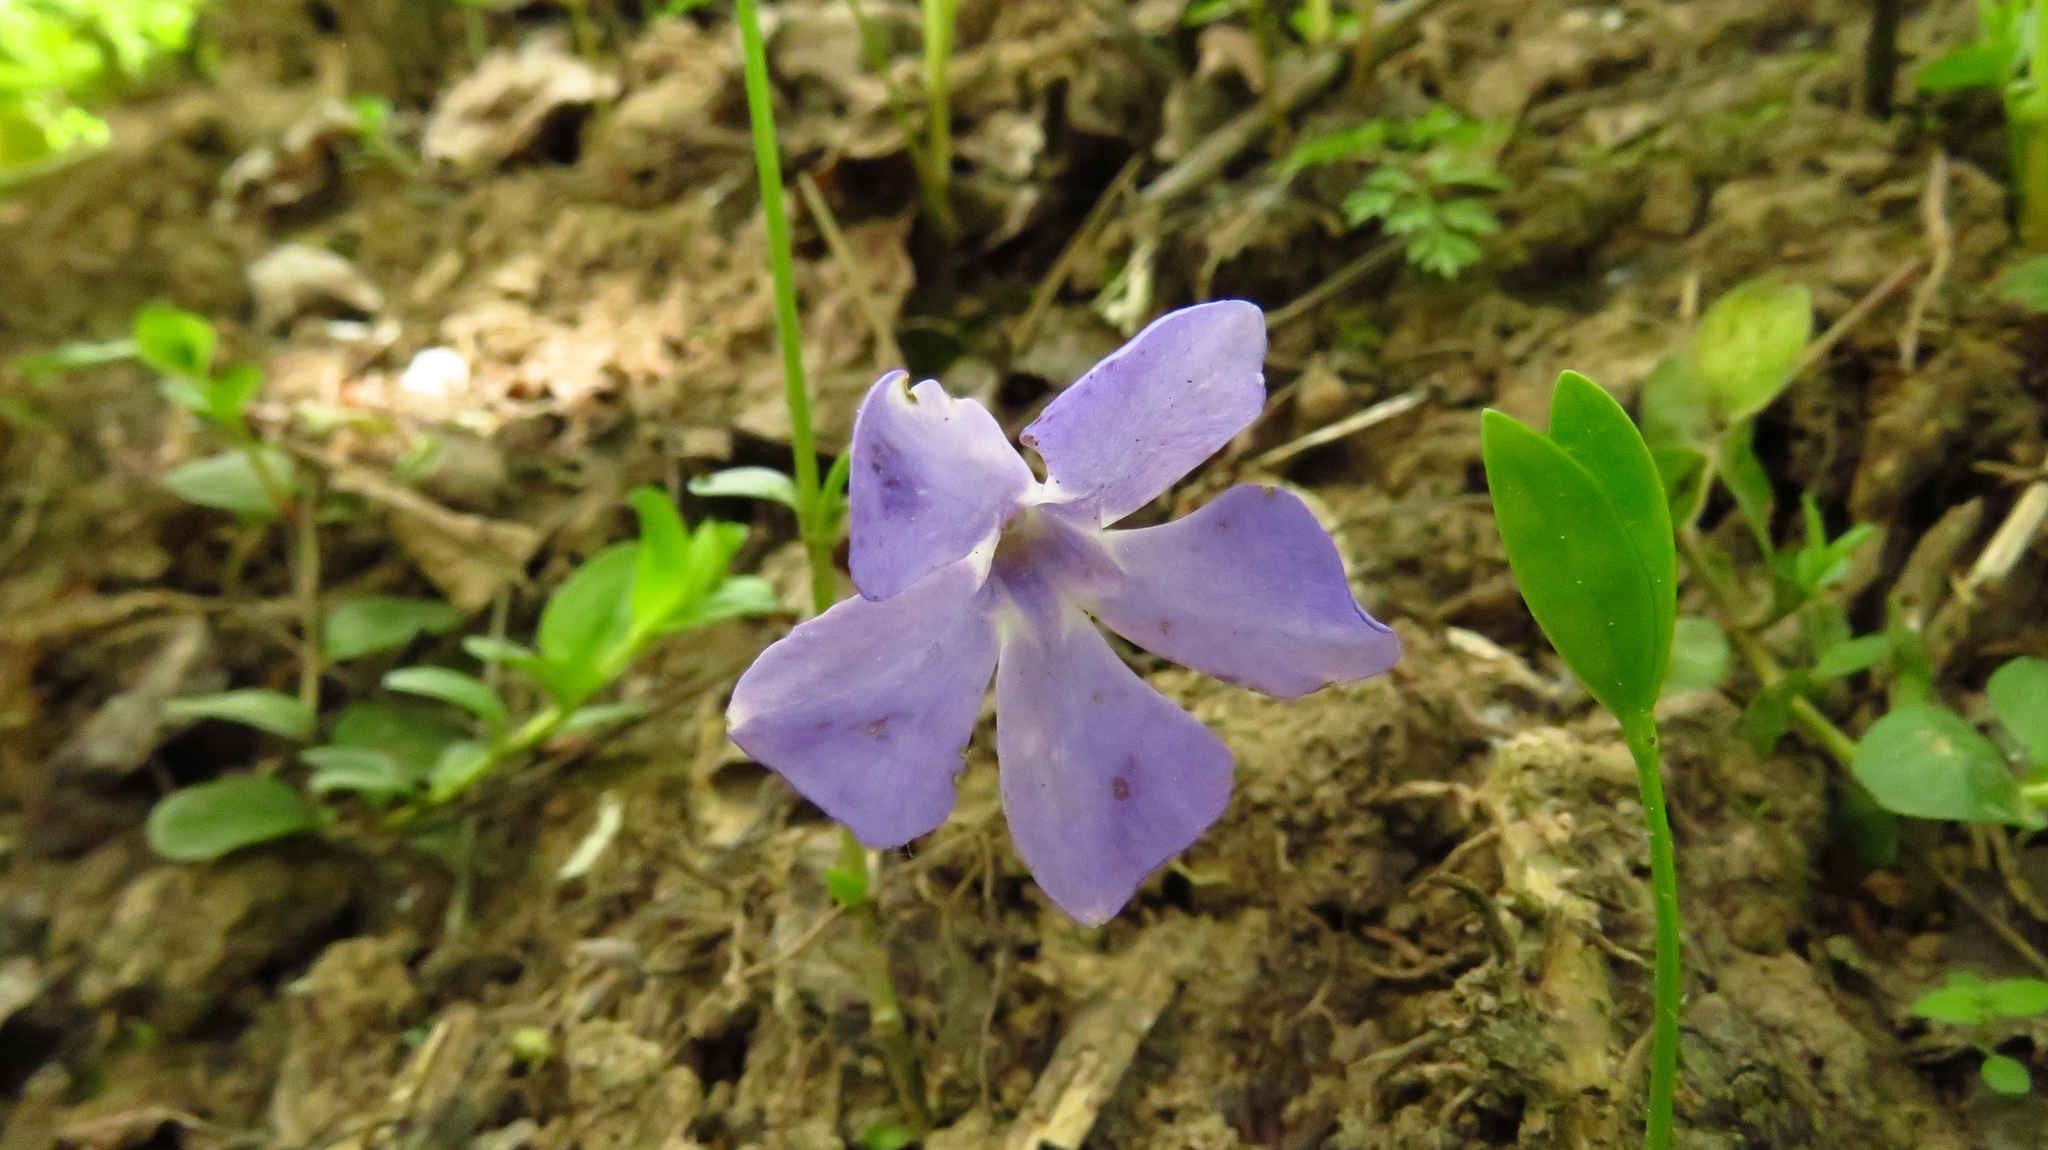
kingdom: Plantae
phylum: Tracheophyta
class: Magnoliopsida
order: Gentianales
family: Apocynaceae
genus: Vinca
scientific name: Vinca minor
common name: Lesser periwinkle
